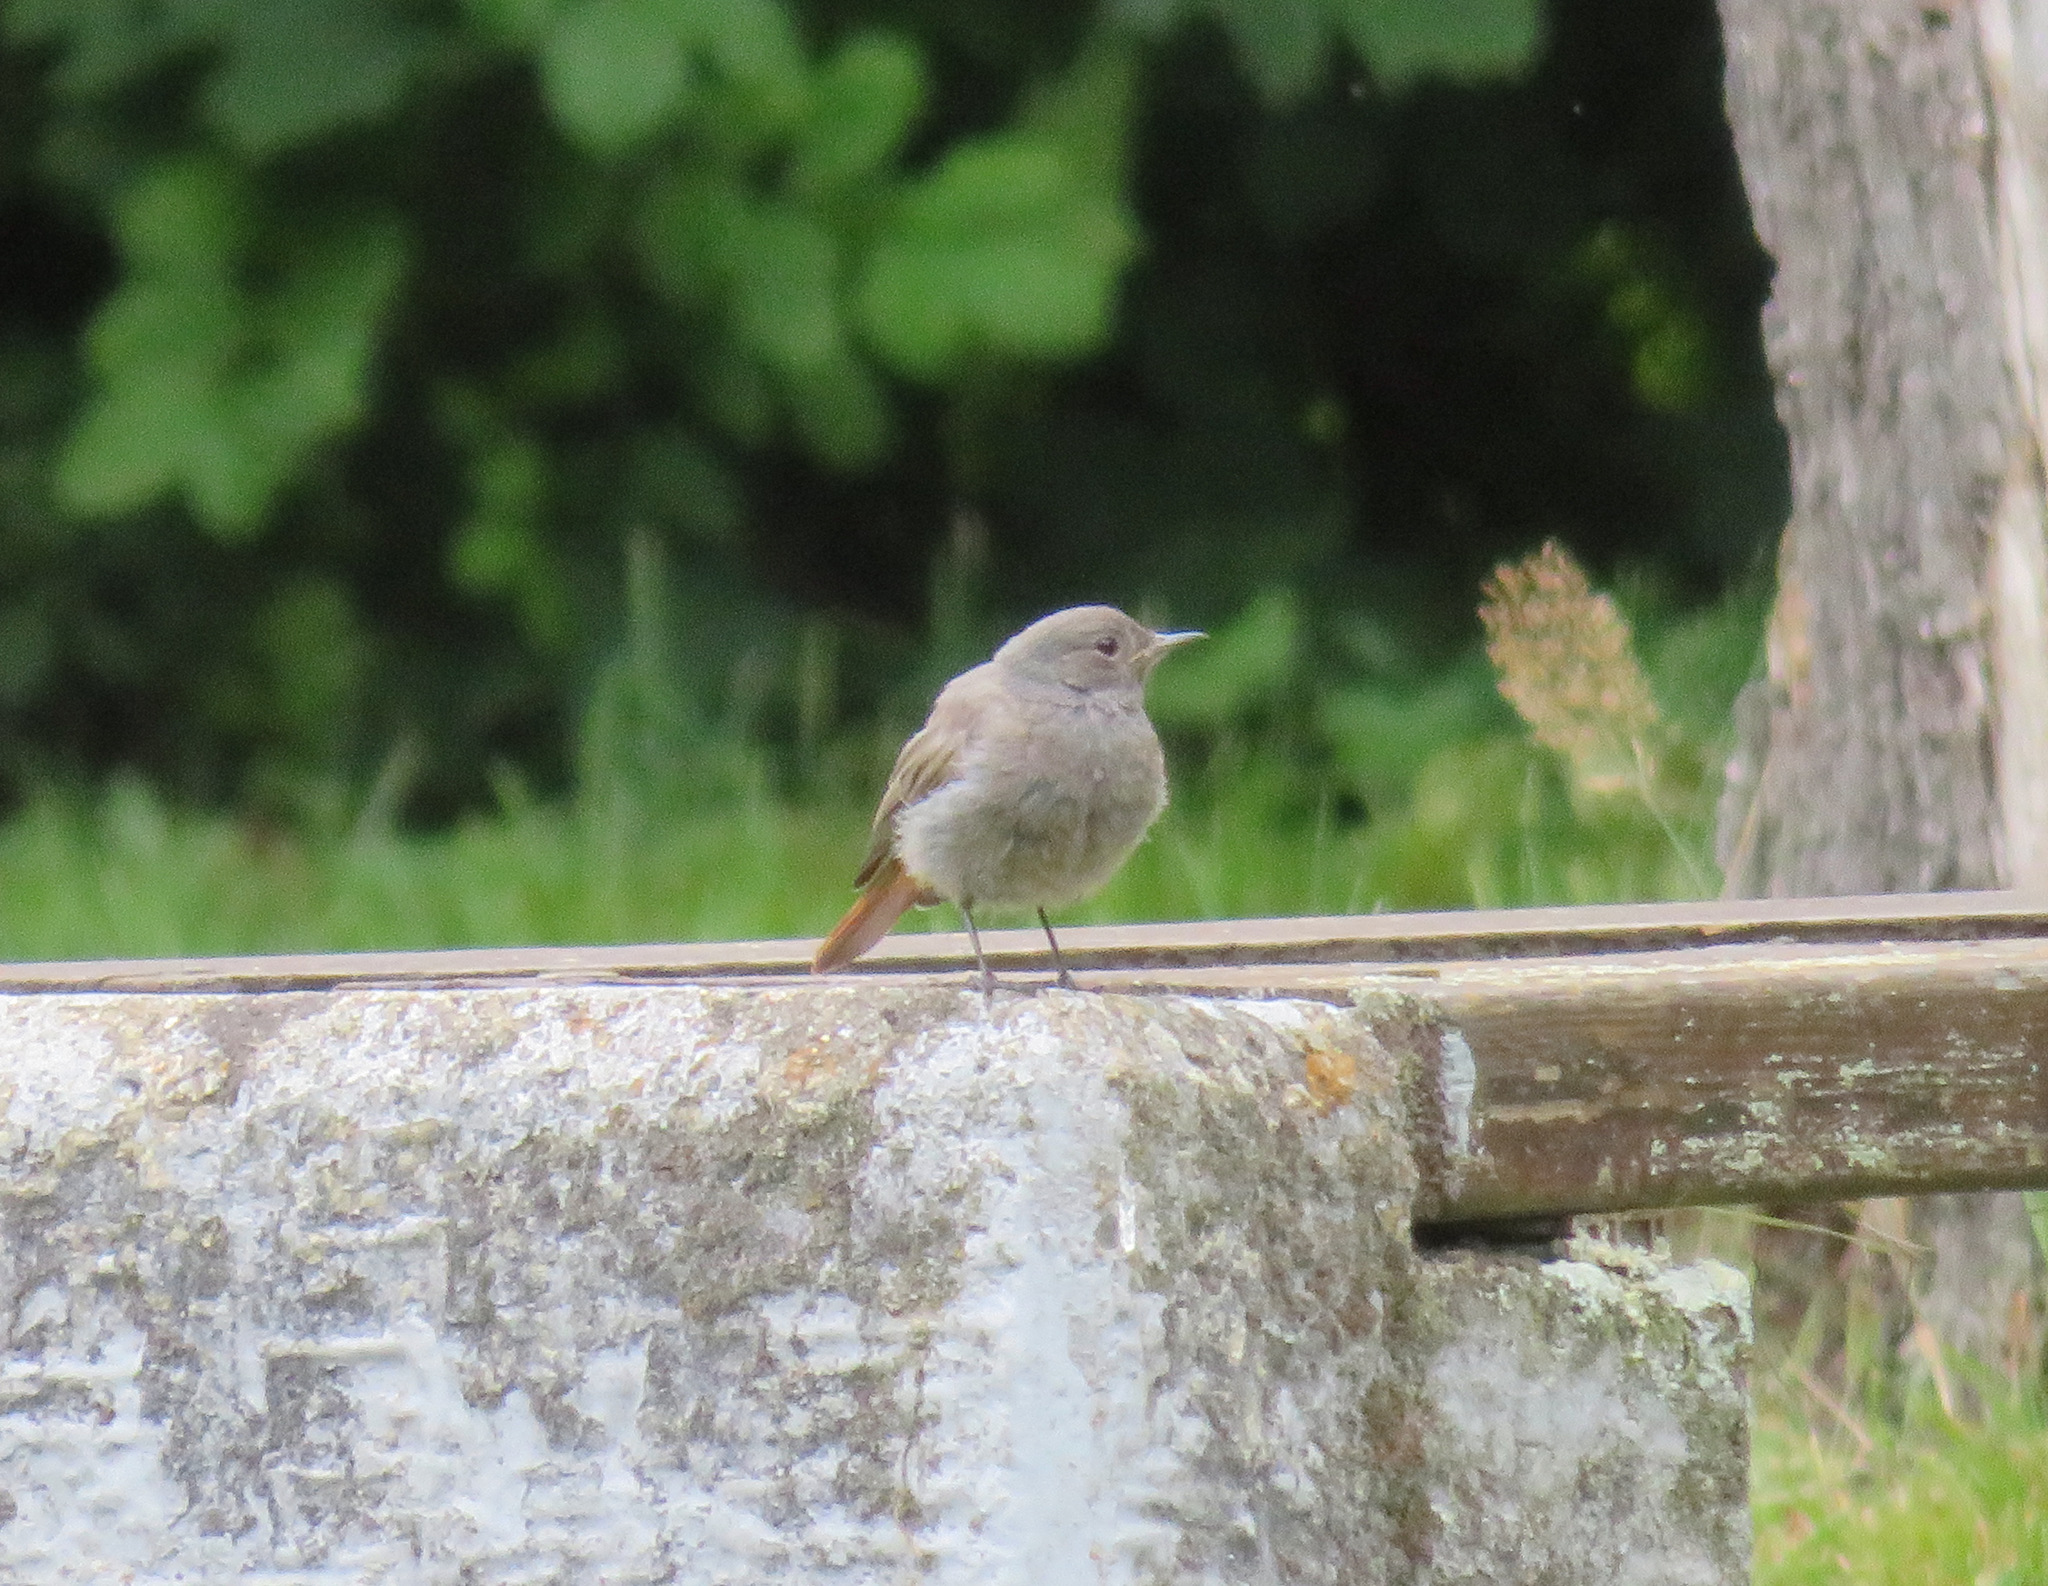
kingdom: Animalia
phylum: Chordata
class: Aves
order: Passeriformes
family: Muscicapidae
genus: Phoenicurus
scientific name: Phoenicurus ochruros
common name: Black redstart
